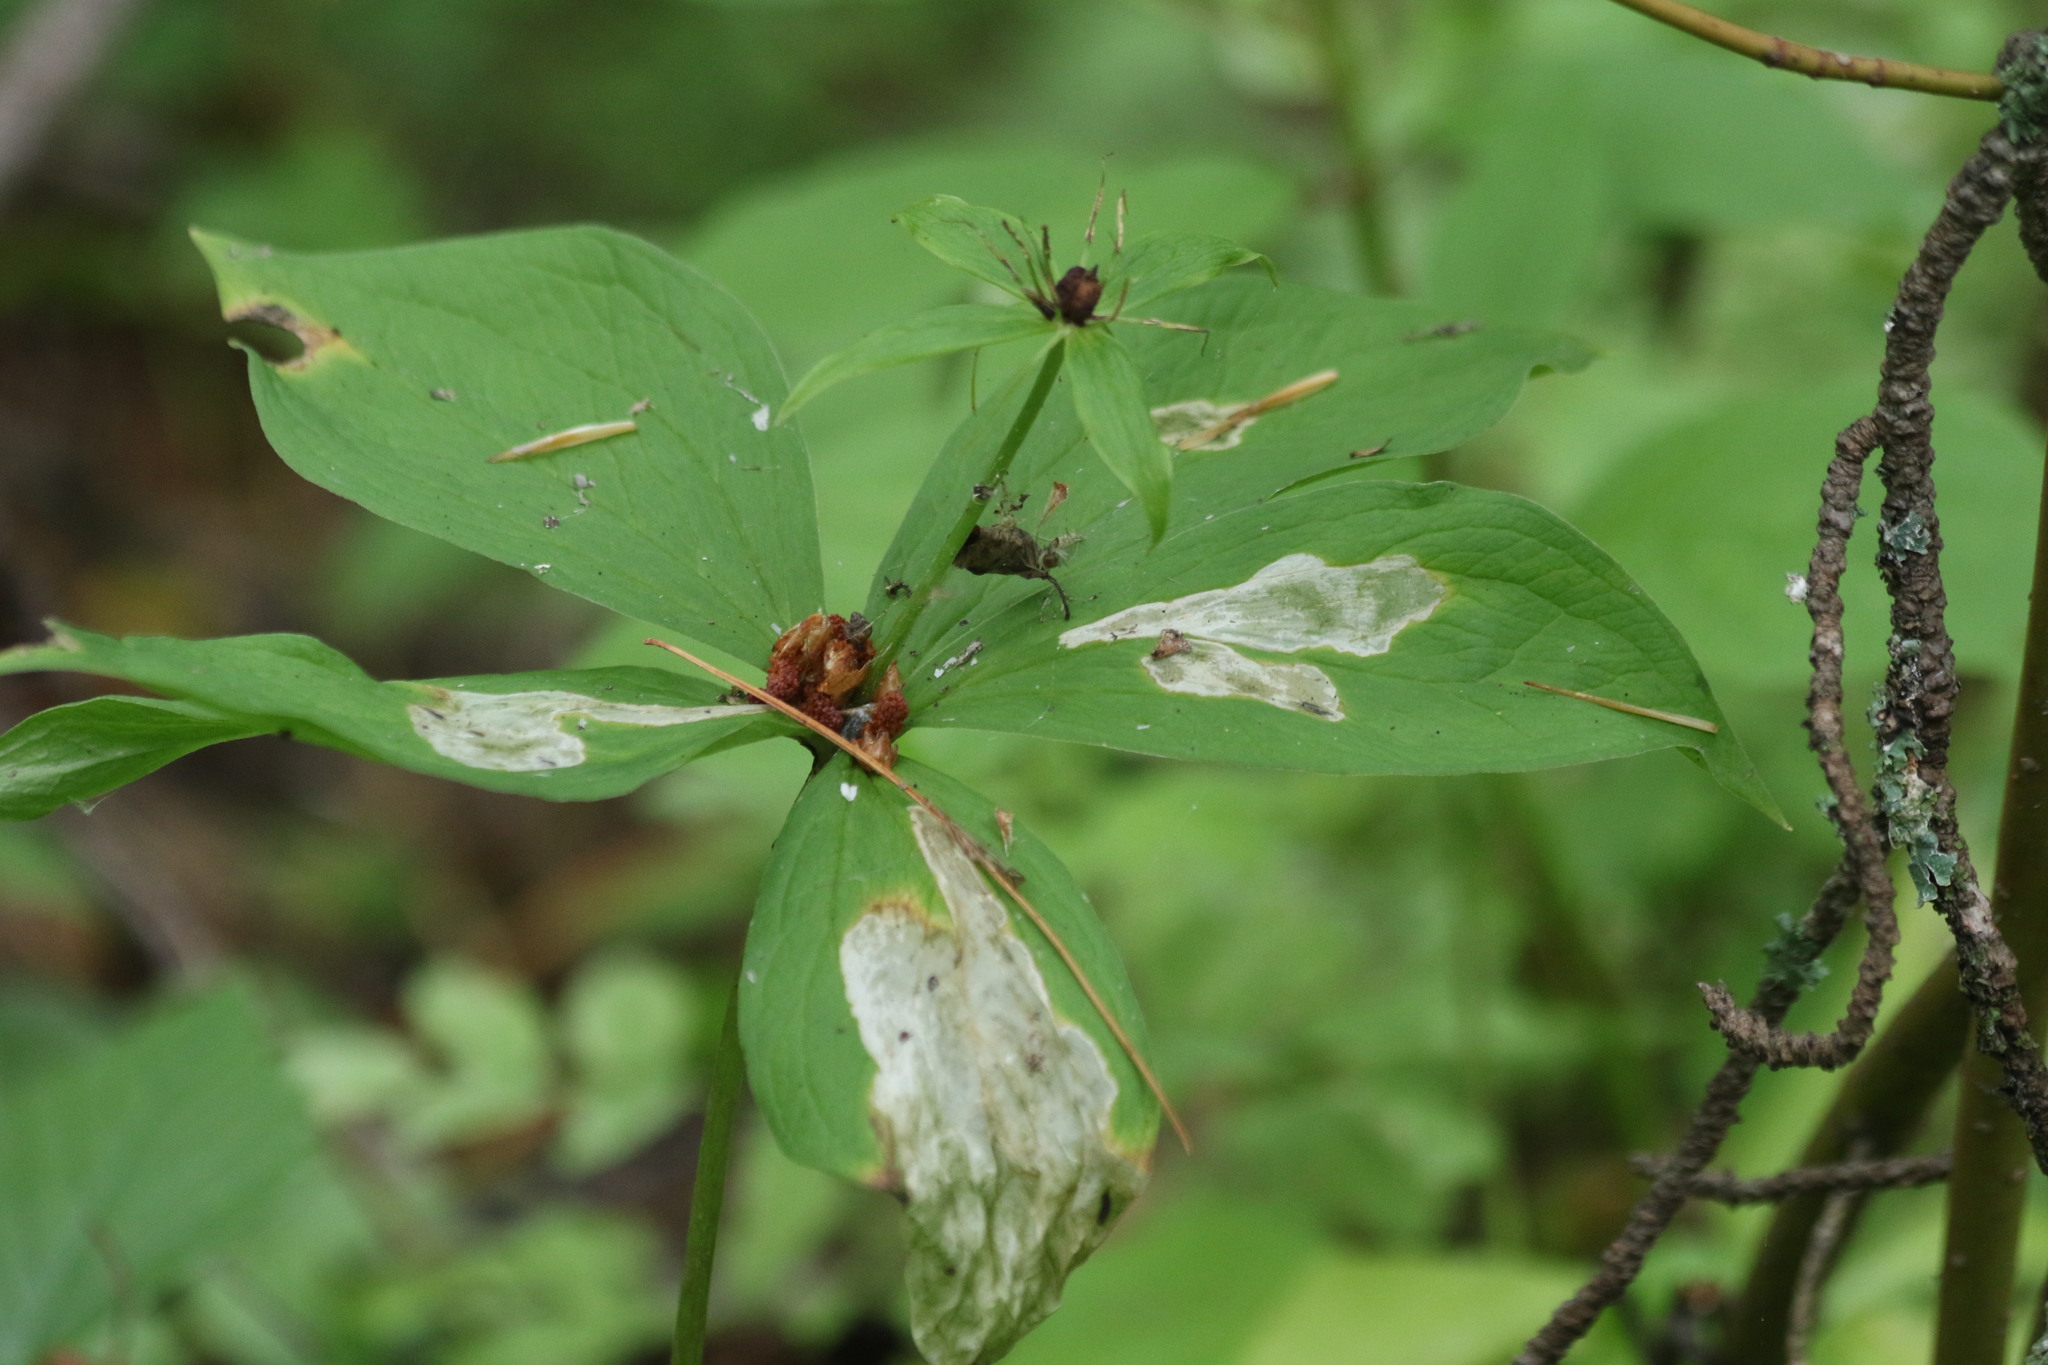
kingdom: Plantae
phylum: Tracheophyta
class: Liliopsida
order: Liliales
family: Melanthiaceae
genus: Paris
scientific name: Paris quadrifolia
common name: Herb-paris
